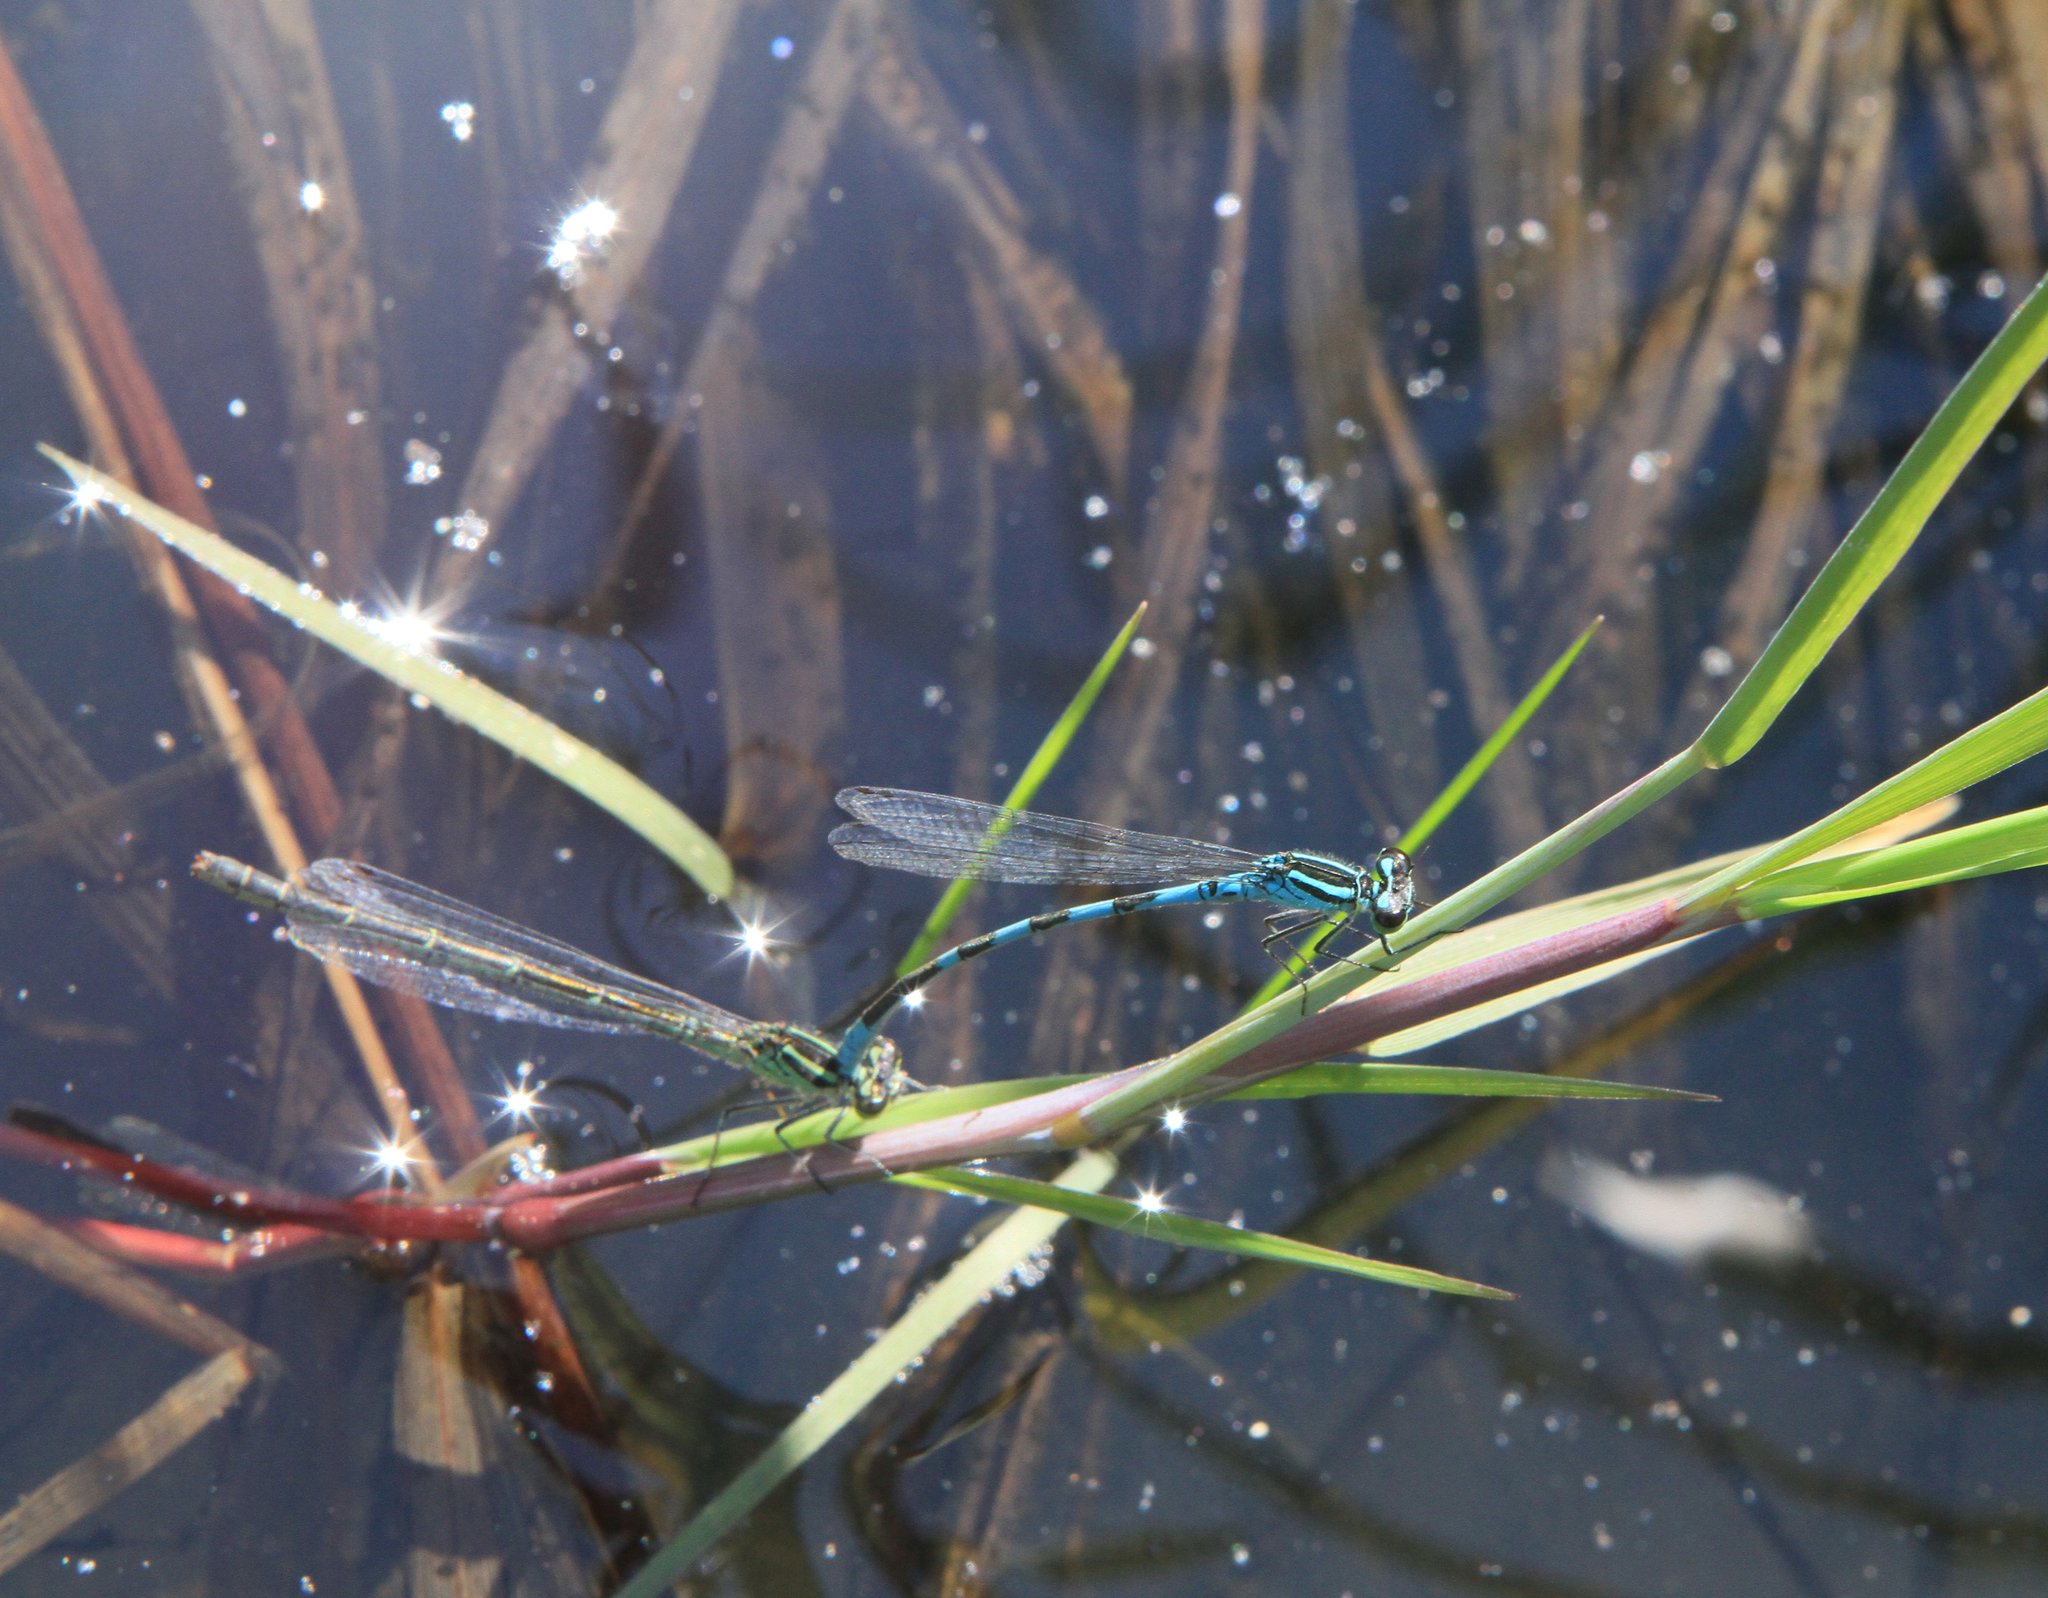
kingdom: Animalia
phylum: Arthropoda
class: Insecta
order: Odonata
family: Coenagrionidae
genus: Coenagrion
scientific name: Coenagrion hastulatum
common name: Spearhead bluet
